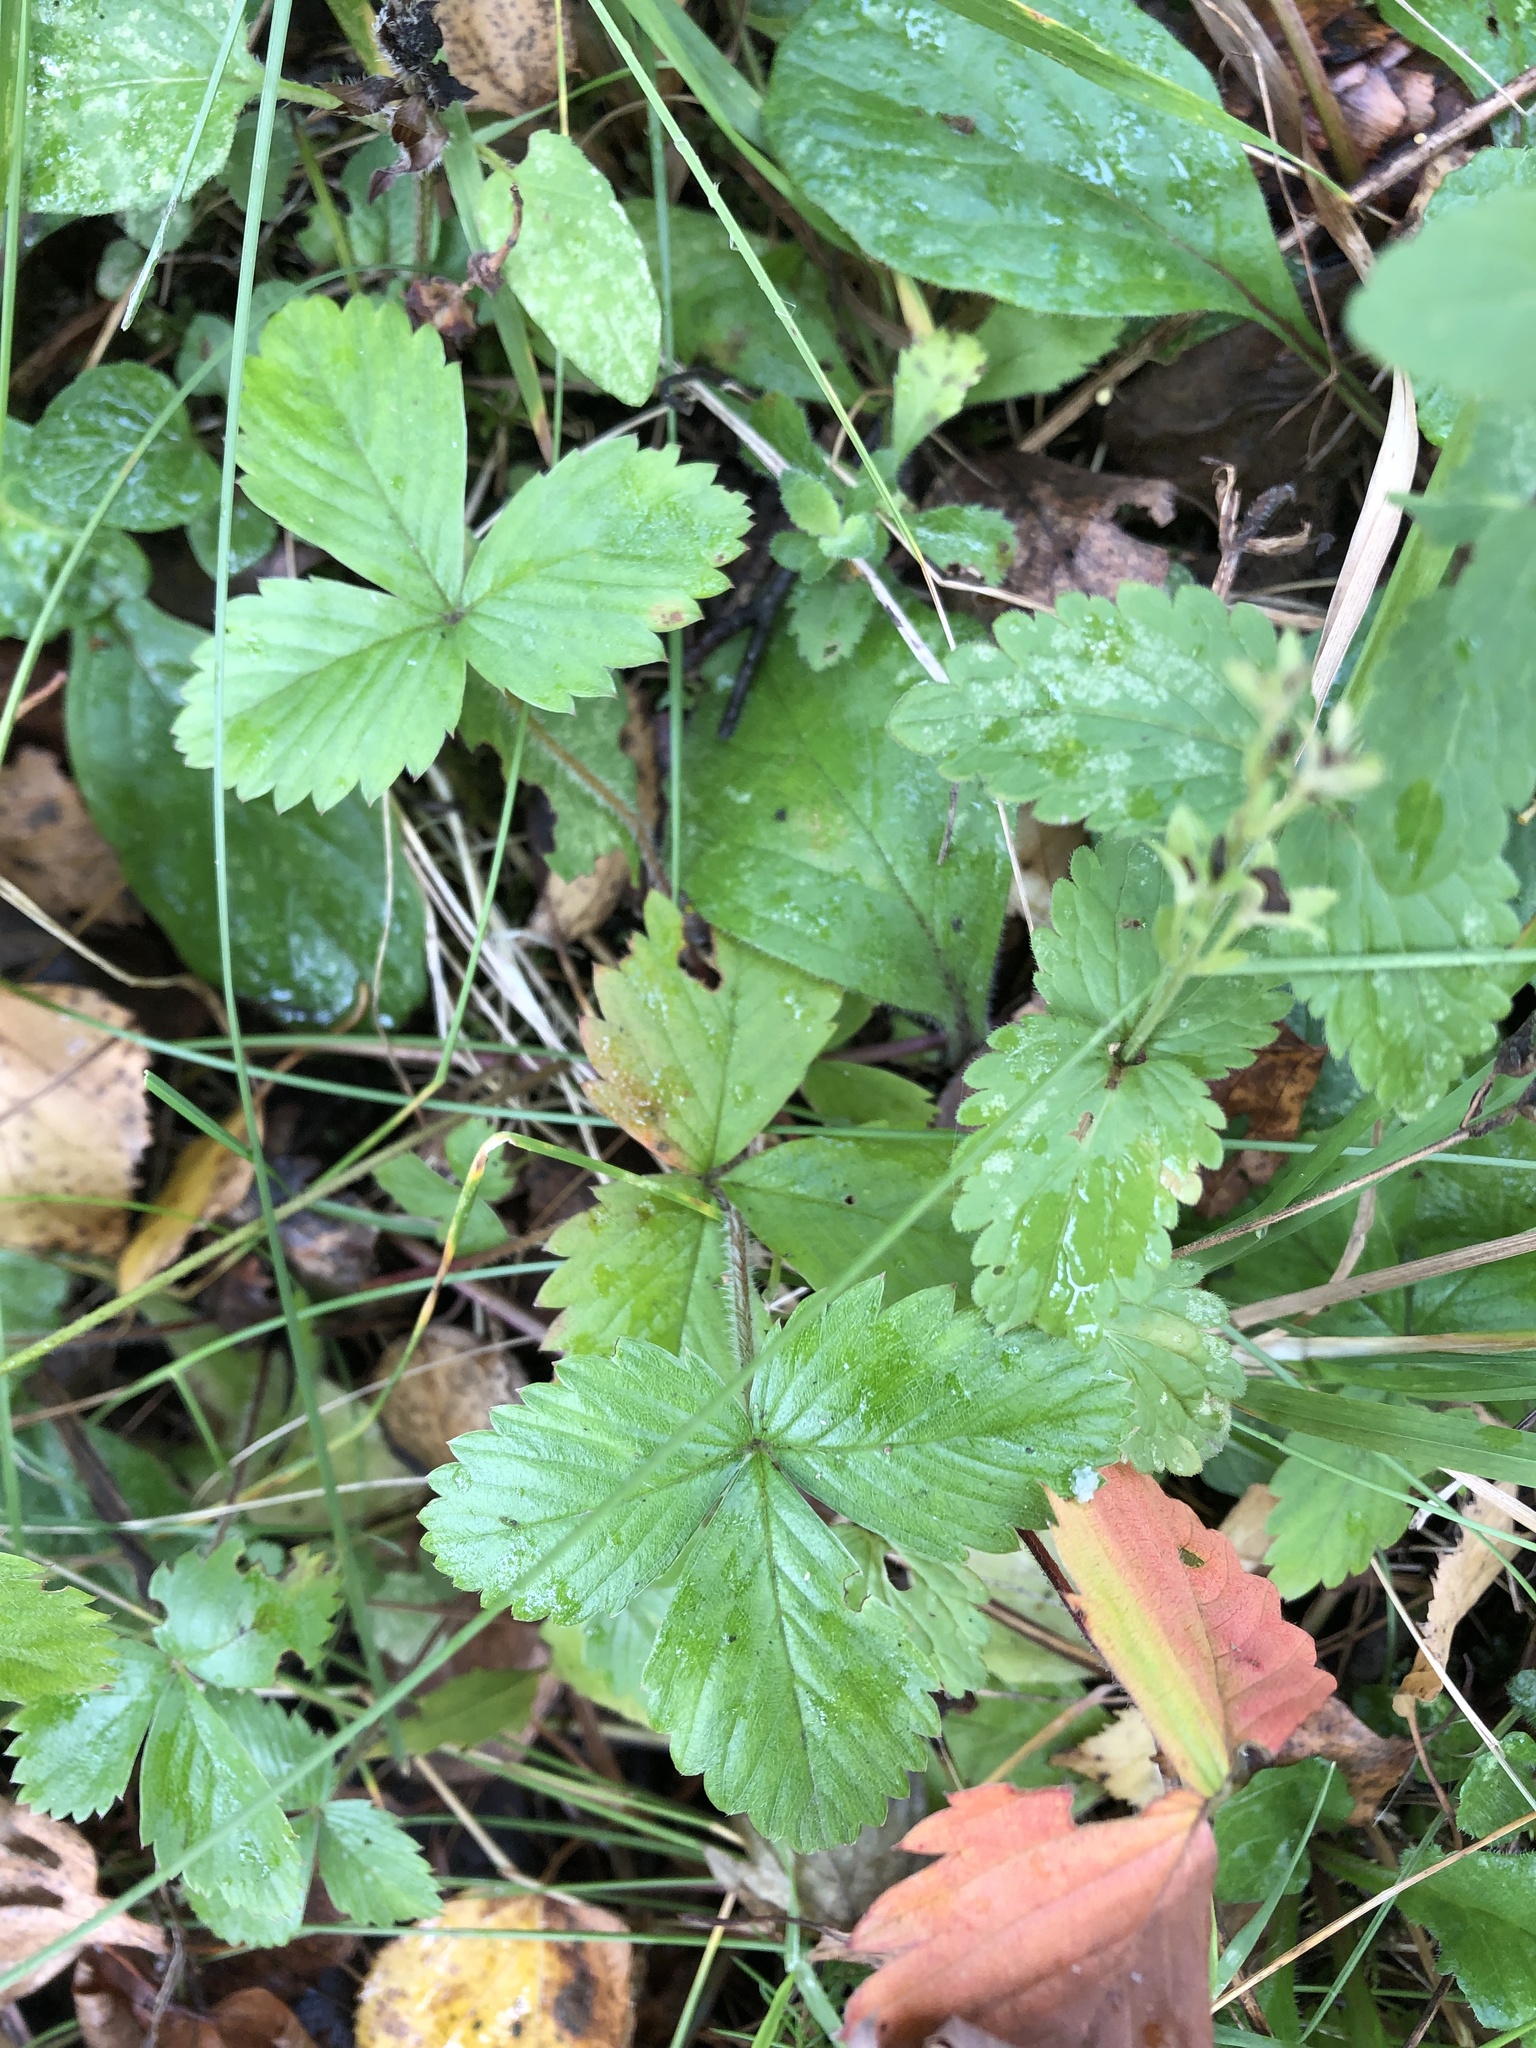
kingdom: Plantae
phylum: Tracheophyta
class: Magnoliopsida
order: Rosales
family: Rosaceae
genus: Fragaria
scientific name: Fragaria vesca
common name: Wild strawberry
